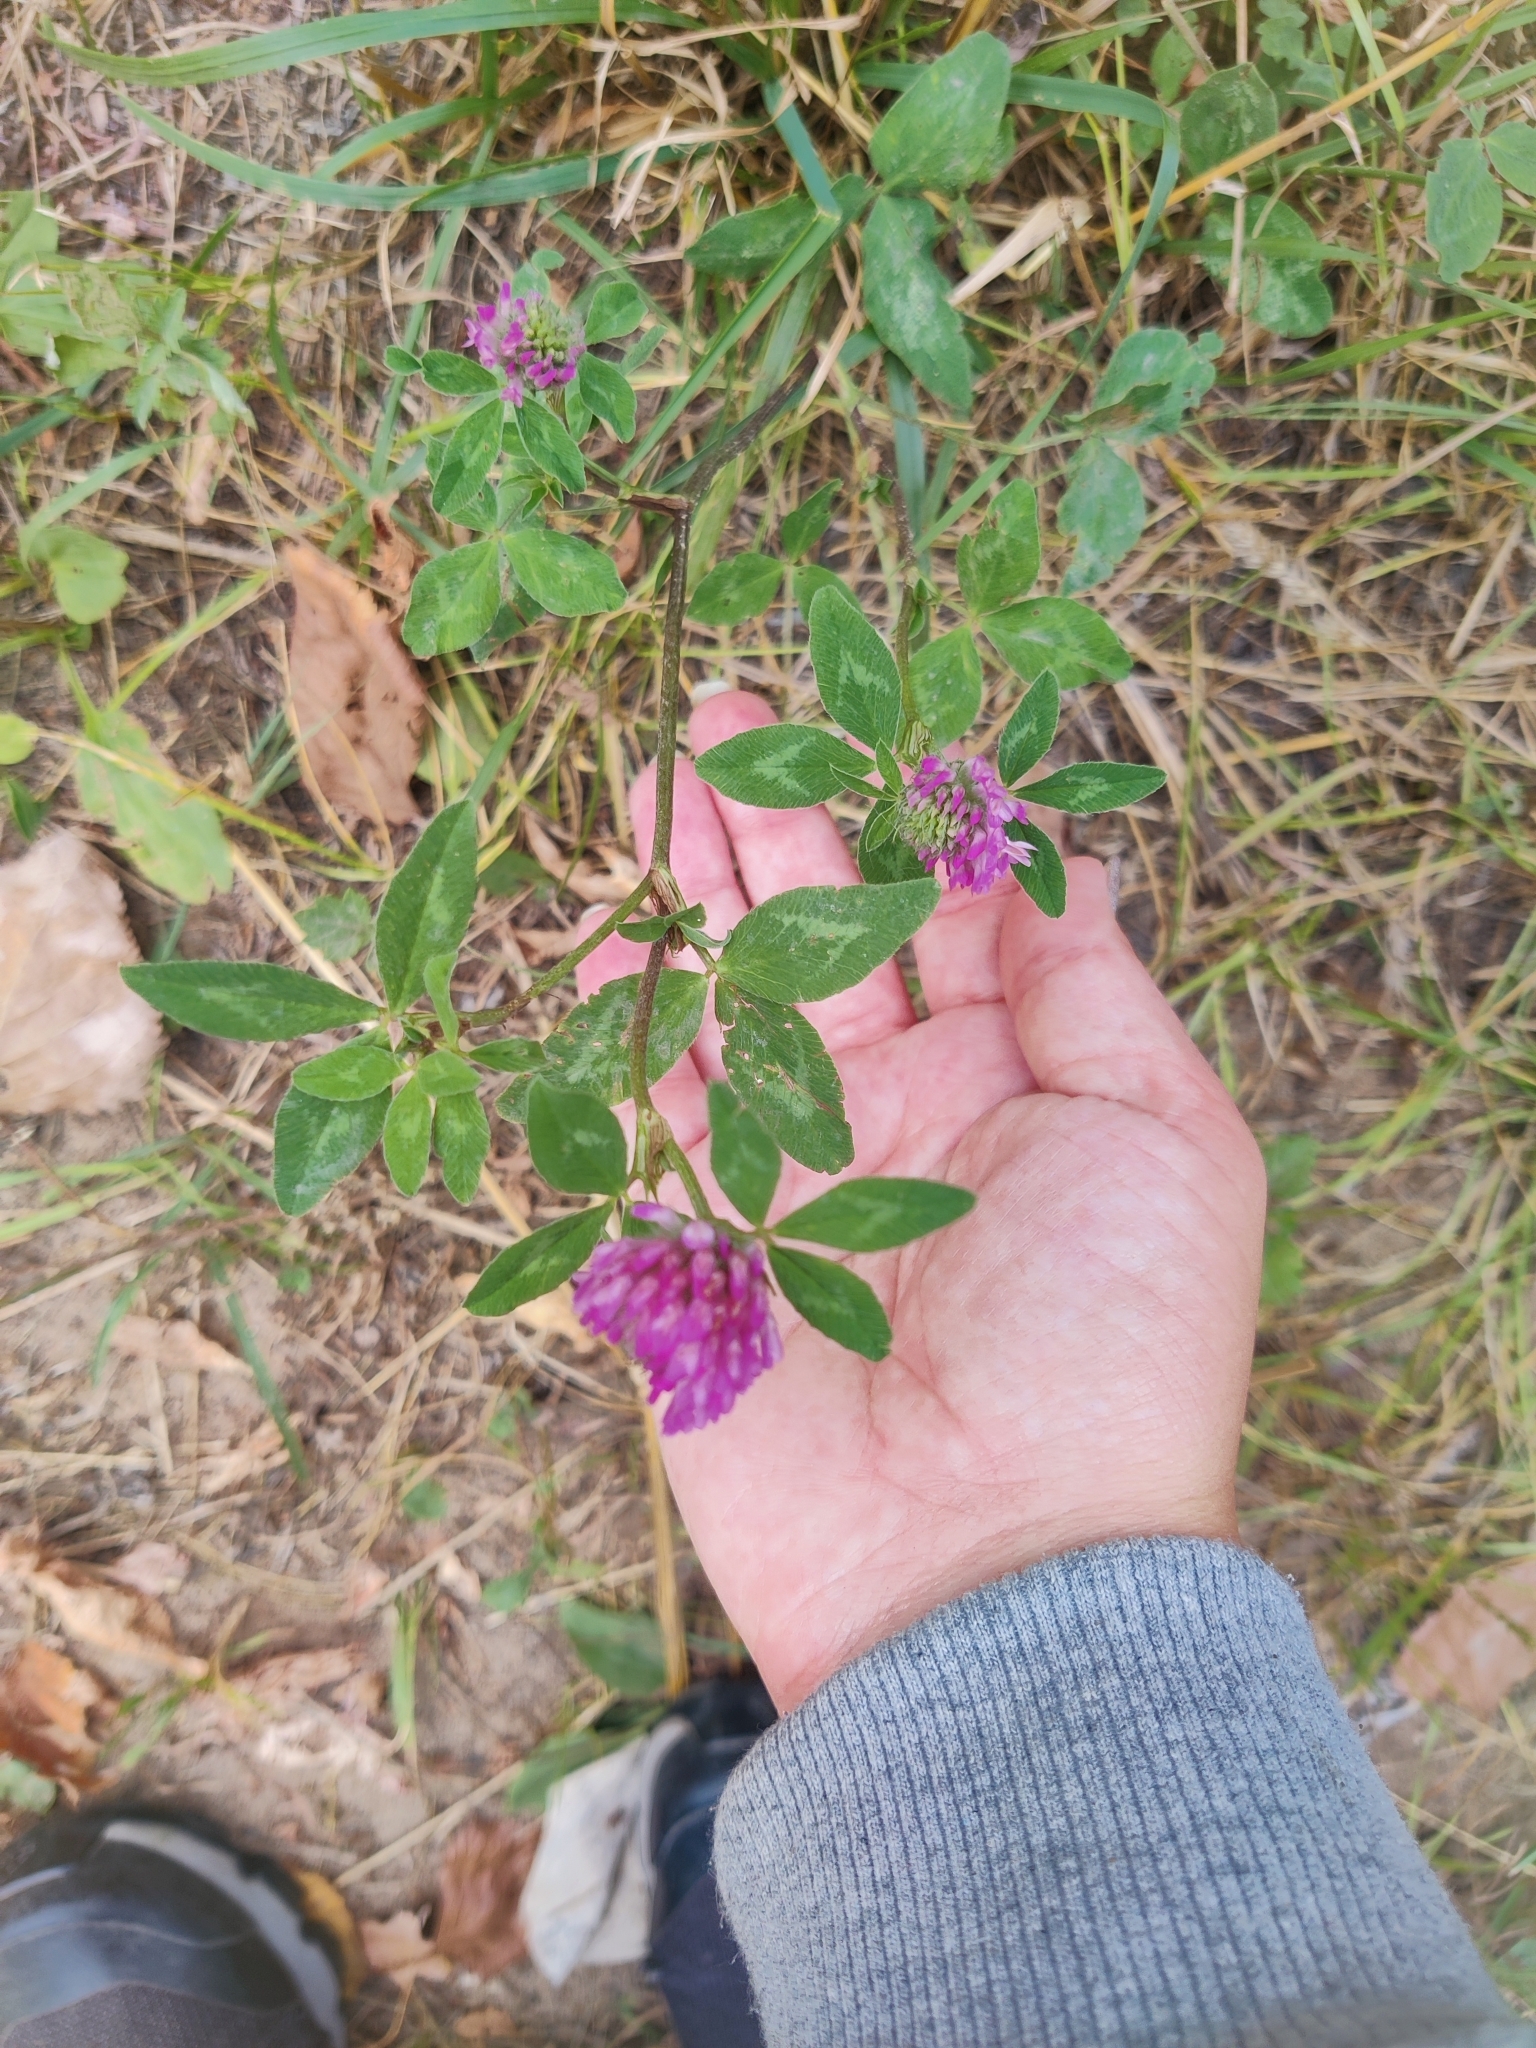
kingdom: Plantae
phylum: Tracheophyta
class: Magnoliopsida
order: Fabales
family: Fabaceae
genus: Trifolium
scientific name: Trifolium pratense
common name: Red clover
